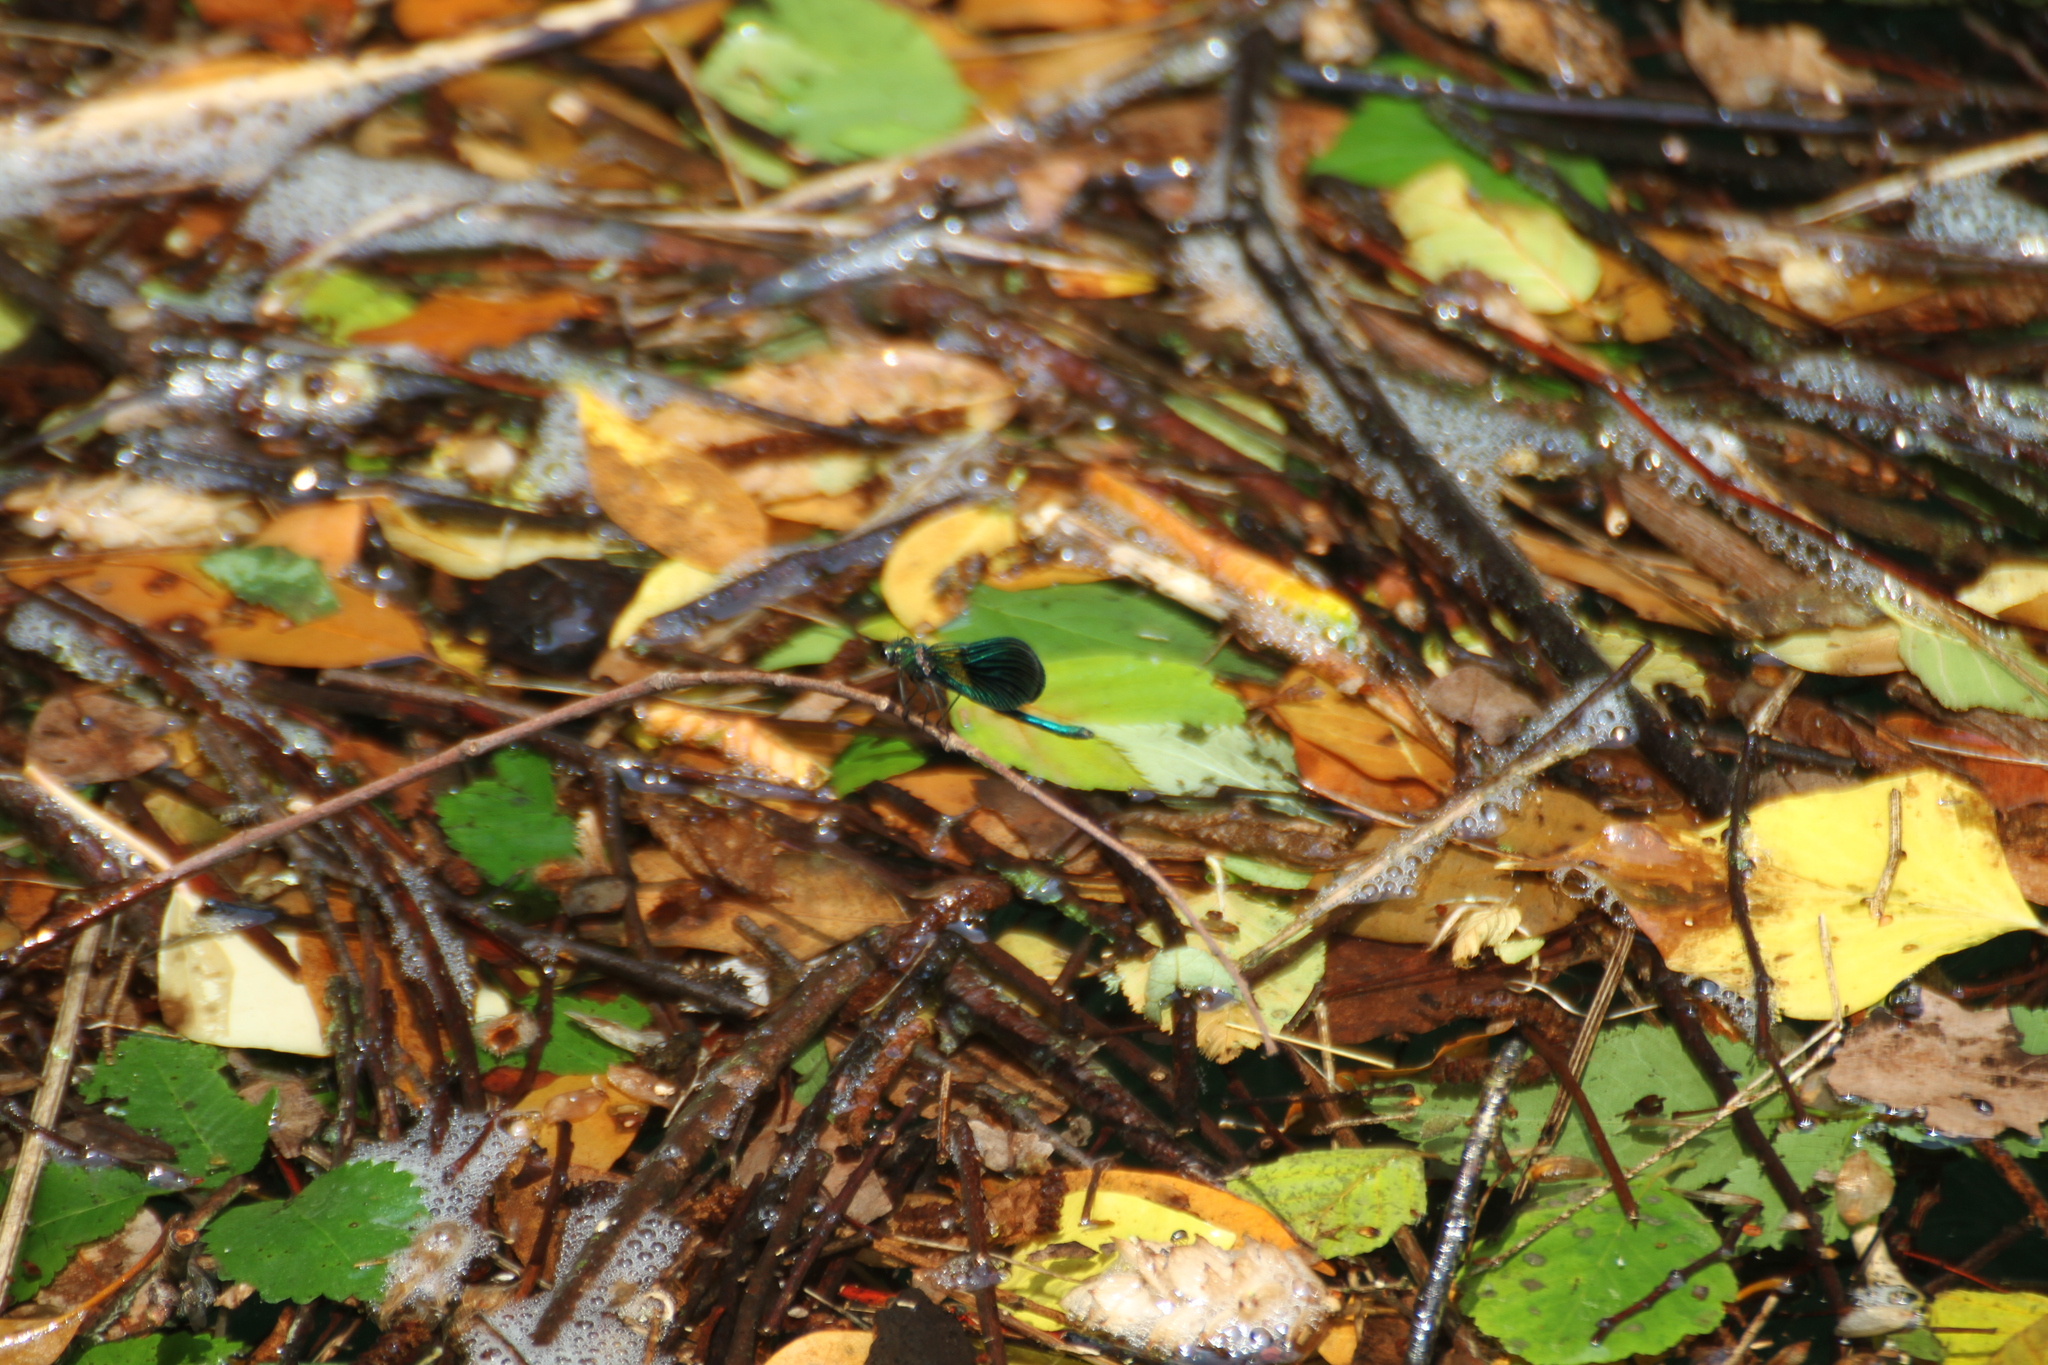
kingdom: Animalia
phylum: Arthropoda
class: Insecta
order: Odonata
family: Calopterygidae
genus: Calopteryx
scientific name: Calopteryx xanthostoma
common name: Western demoiselle
